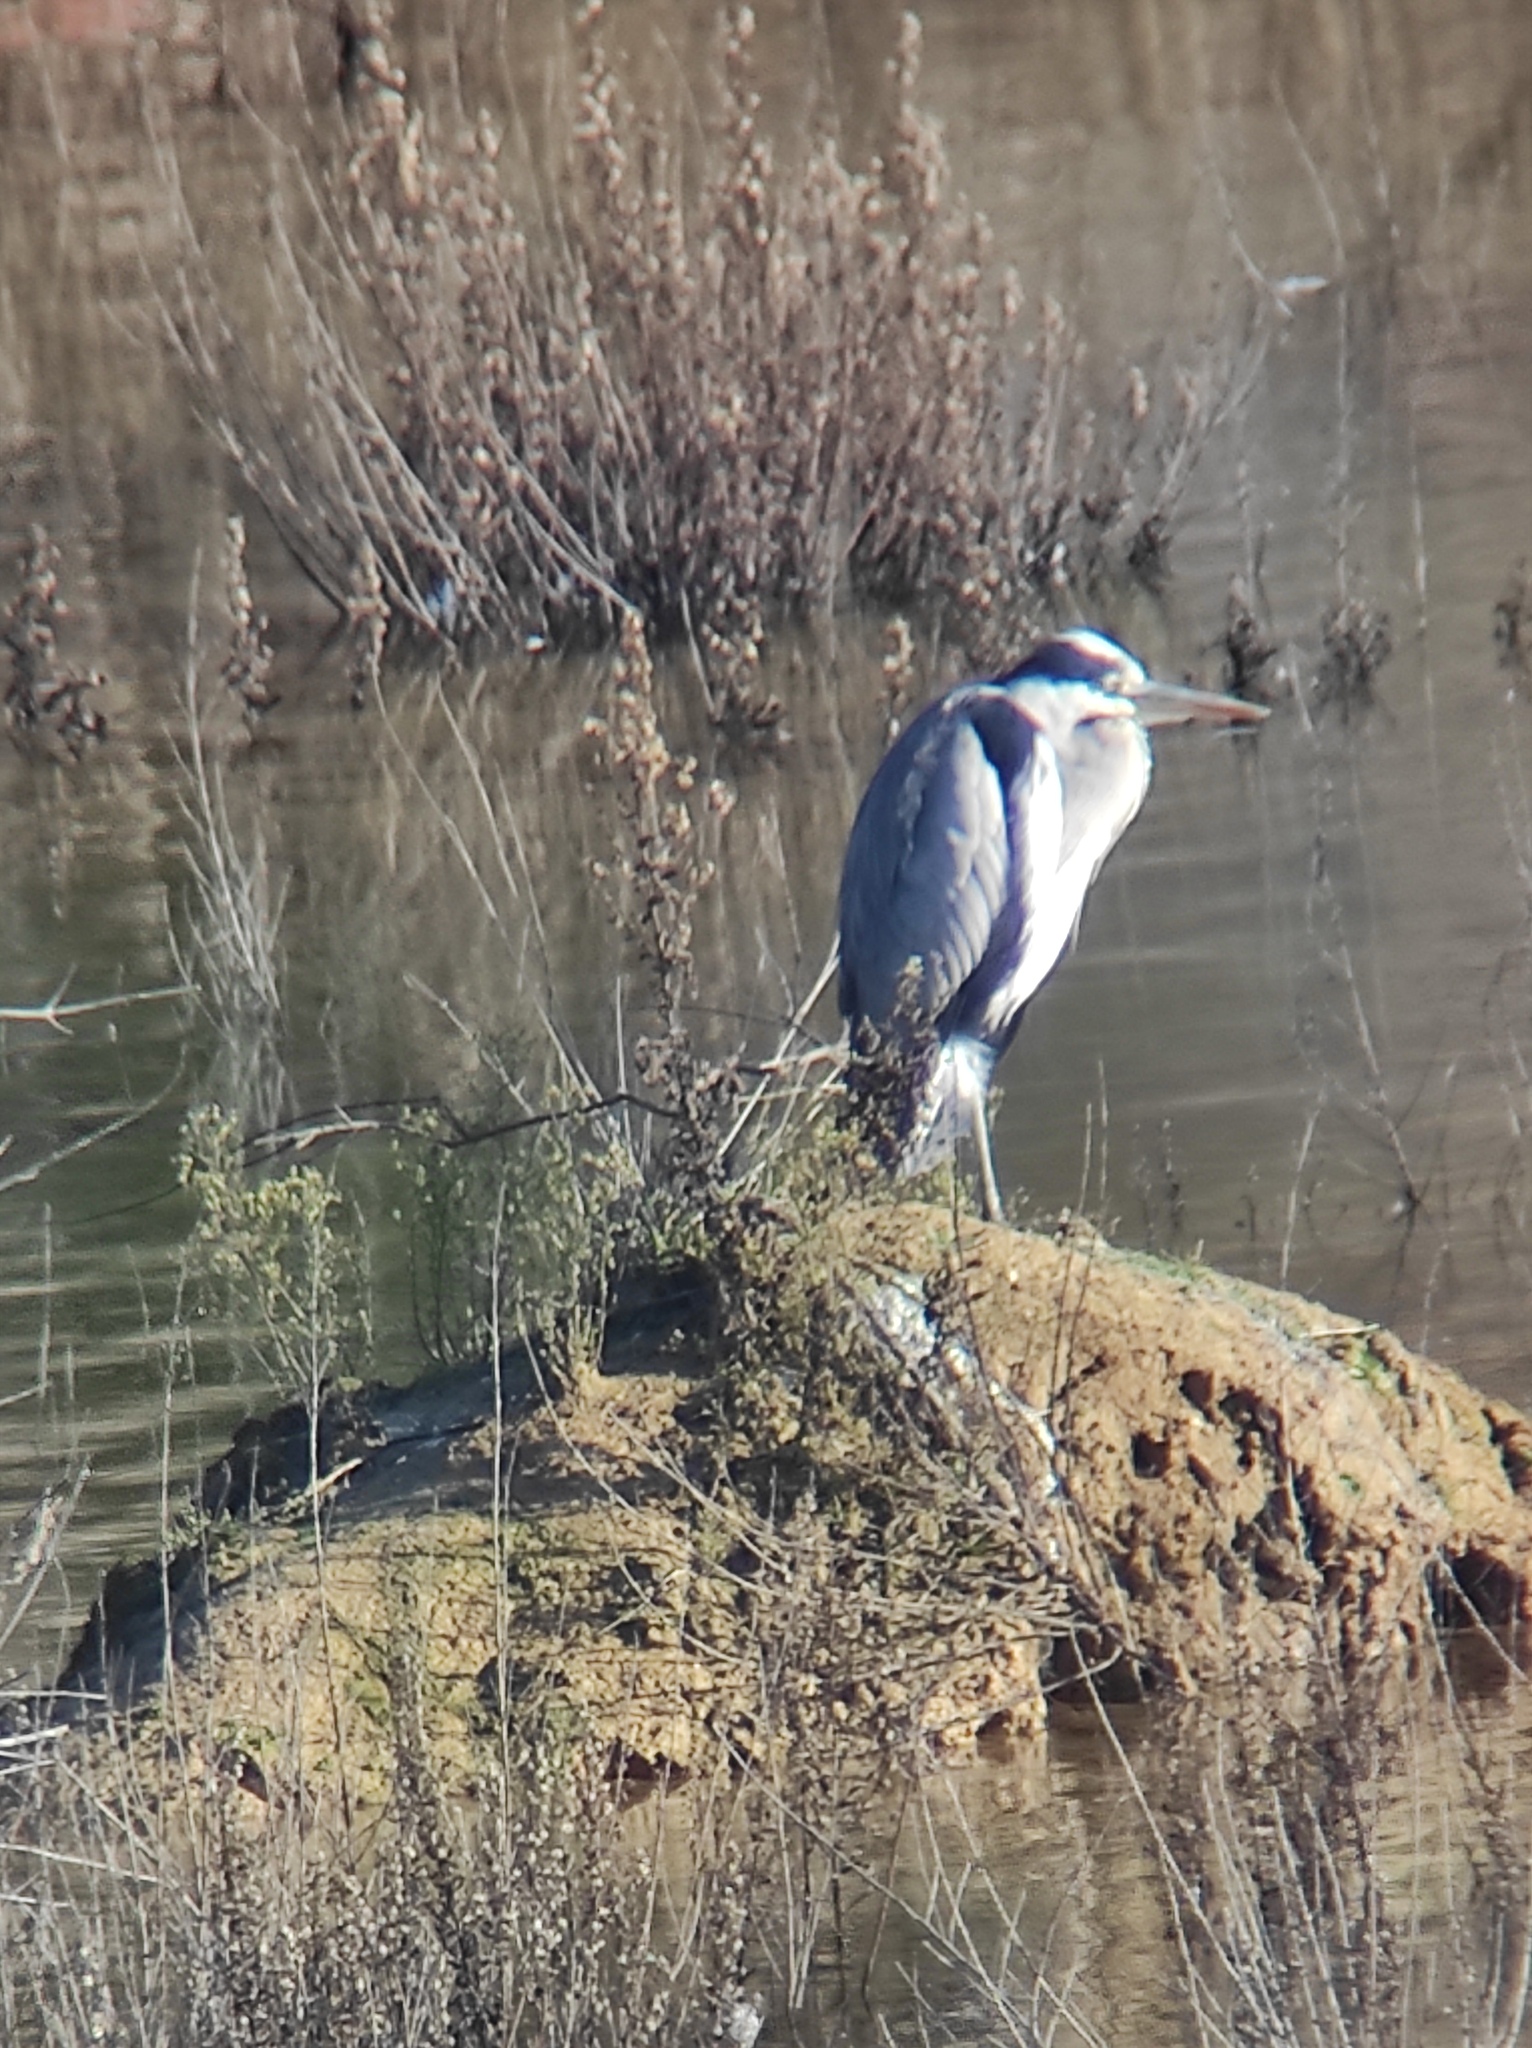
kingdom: Animalia
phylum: Chordata
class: Aves
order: Pelecaniformes
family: Ardeidae
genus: Ardea
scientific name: Ardea cinerea
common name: Grey heron
